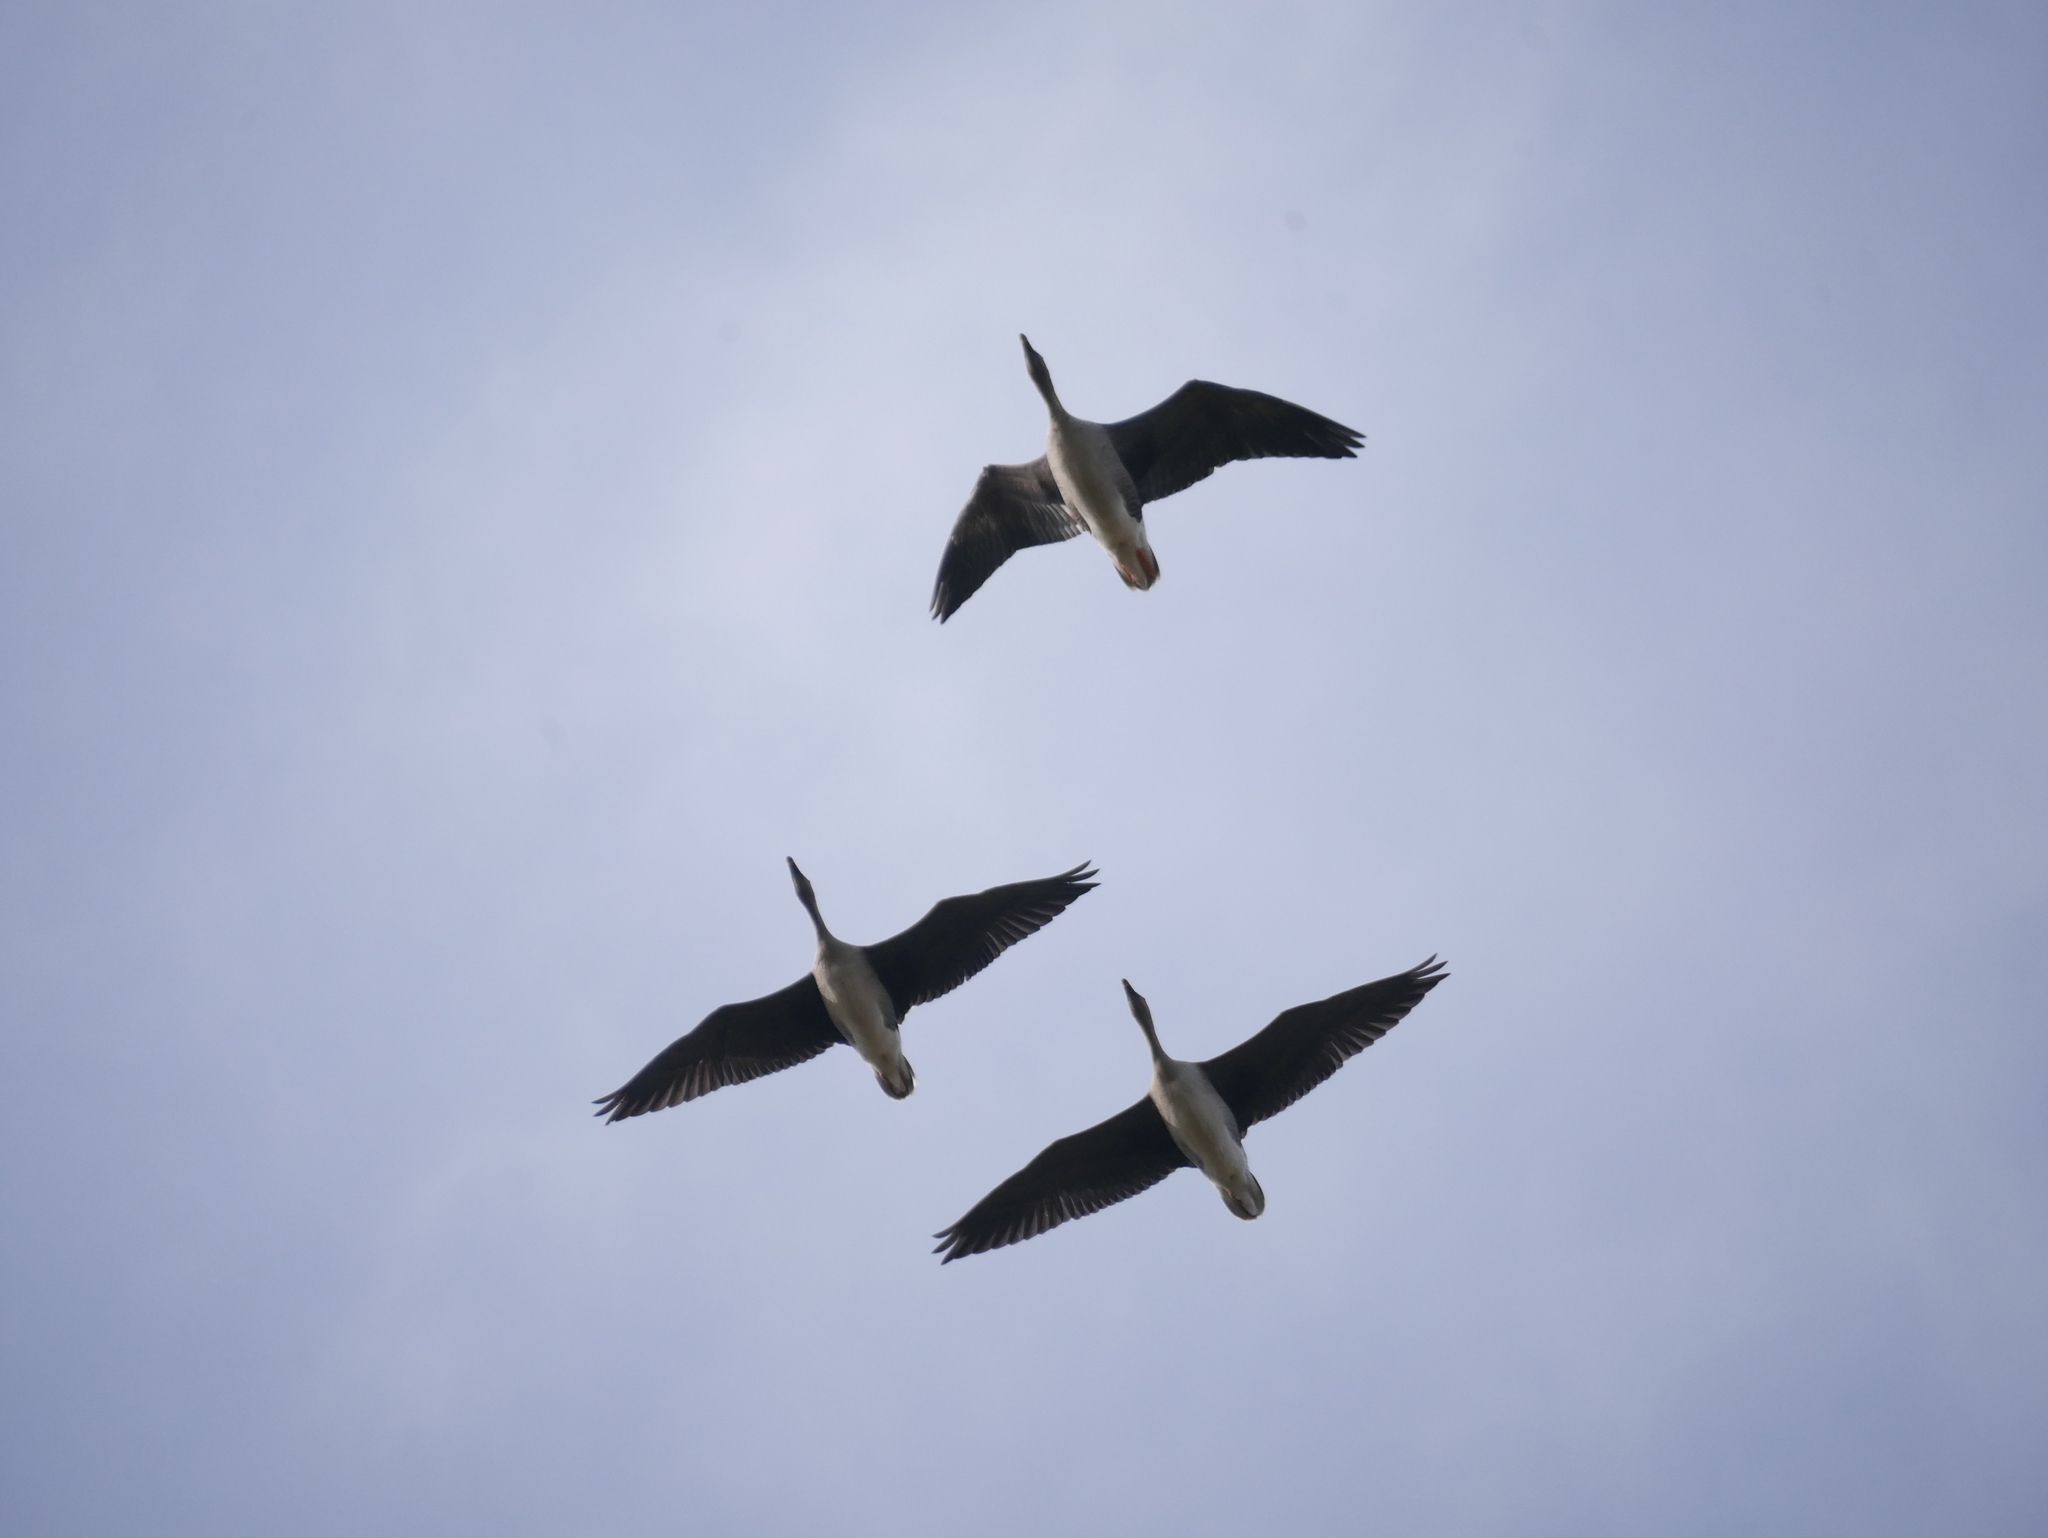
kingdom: Animalia
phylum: Chordata
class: Aves
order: Anseriformes
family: Anatidae
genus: Anser
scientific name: Anser serrirostris
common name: Tundra bean goose
